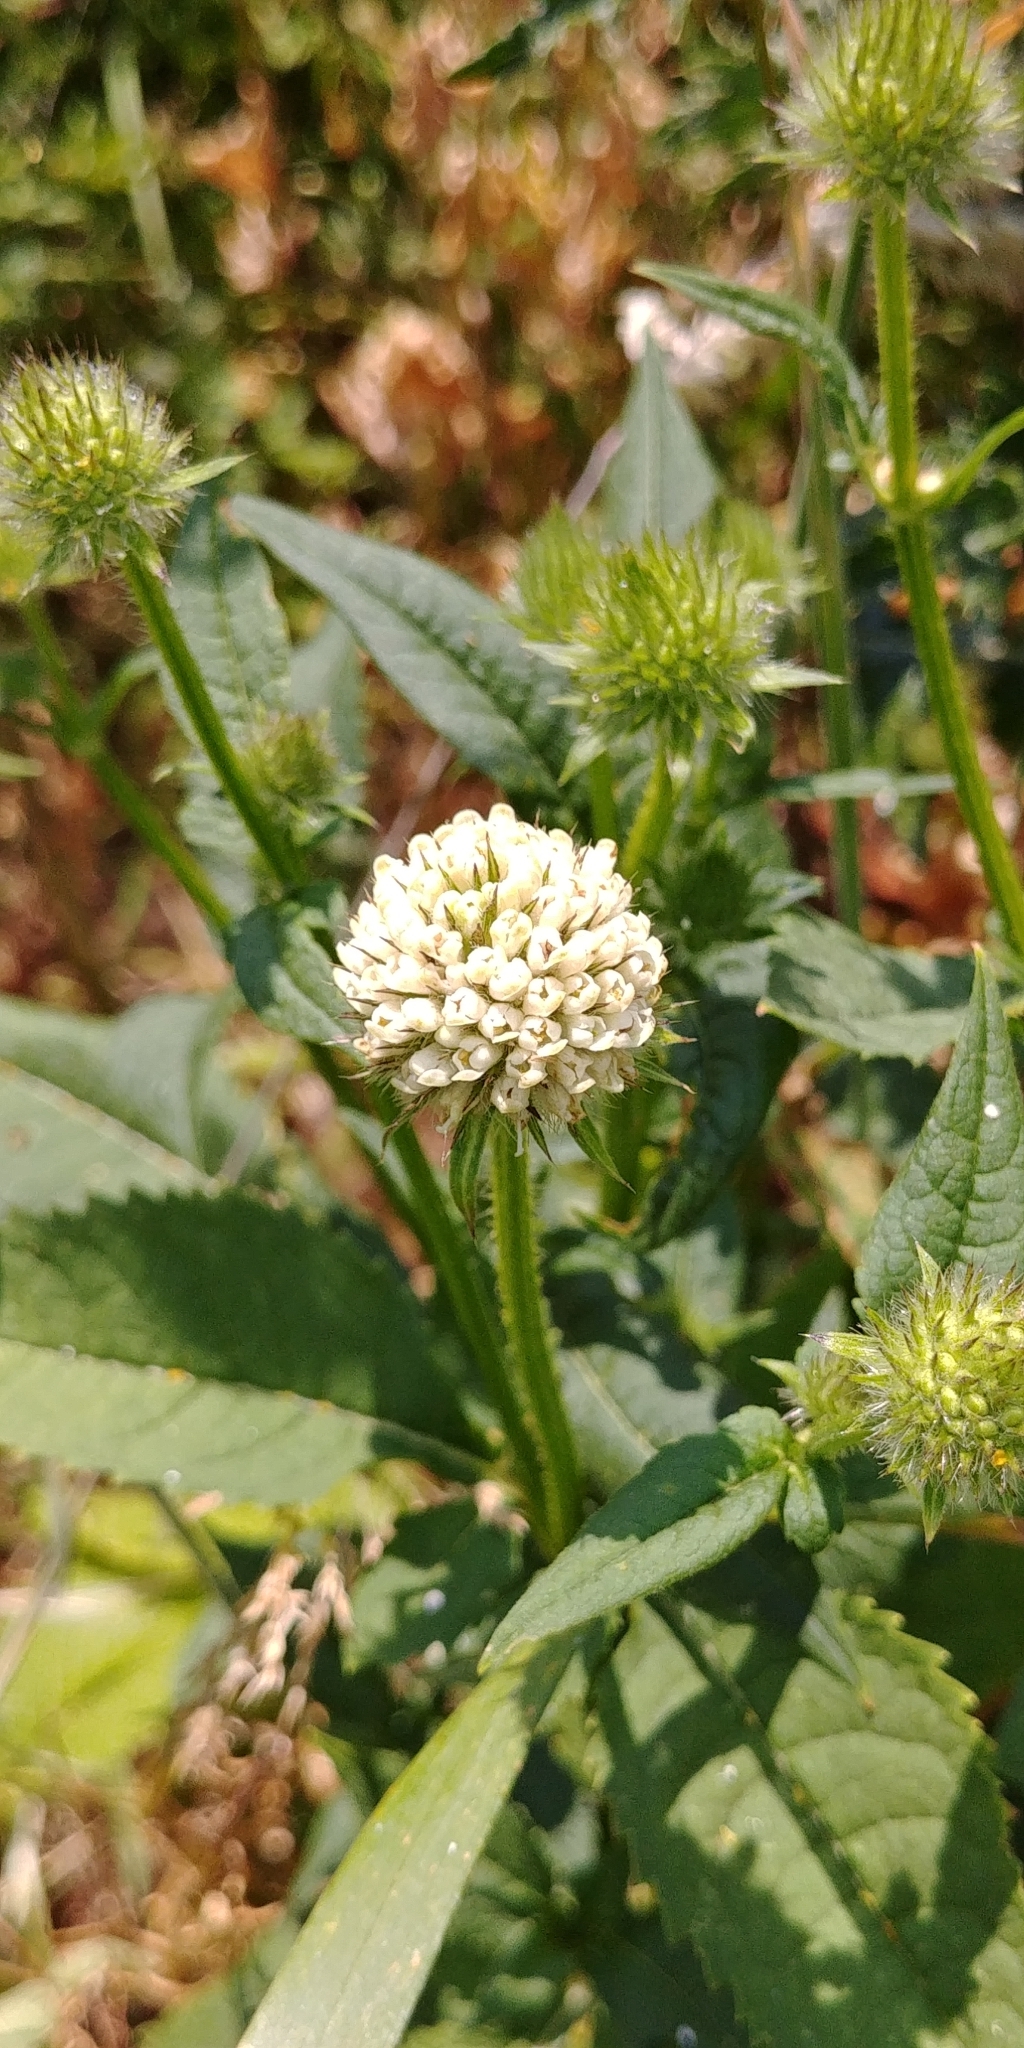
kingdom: Plantae
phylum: Tracheophyta
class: Magnoliopsida
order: Dipsacales
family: Caprifoliaceae
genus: Dipsacus
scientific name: Dipsacus pilosus
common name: Small teasel
